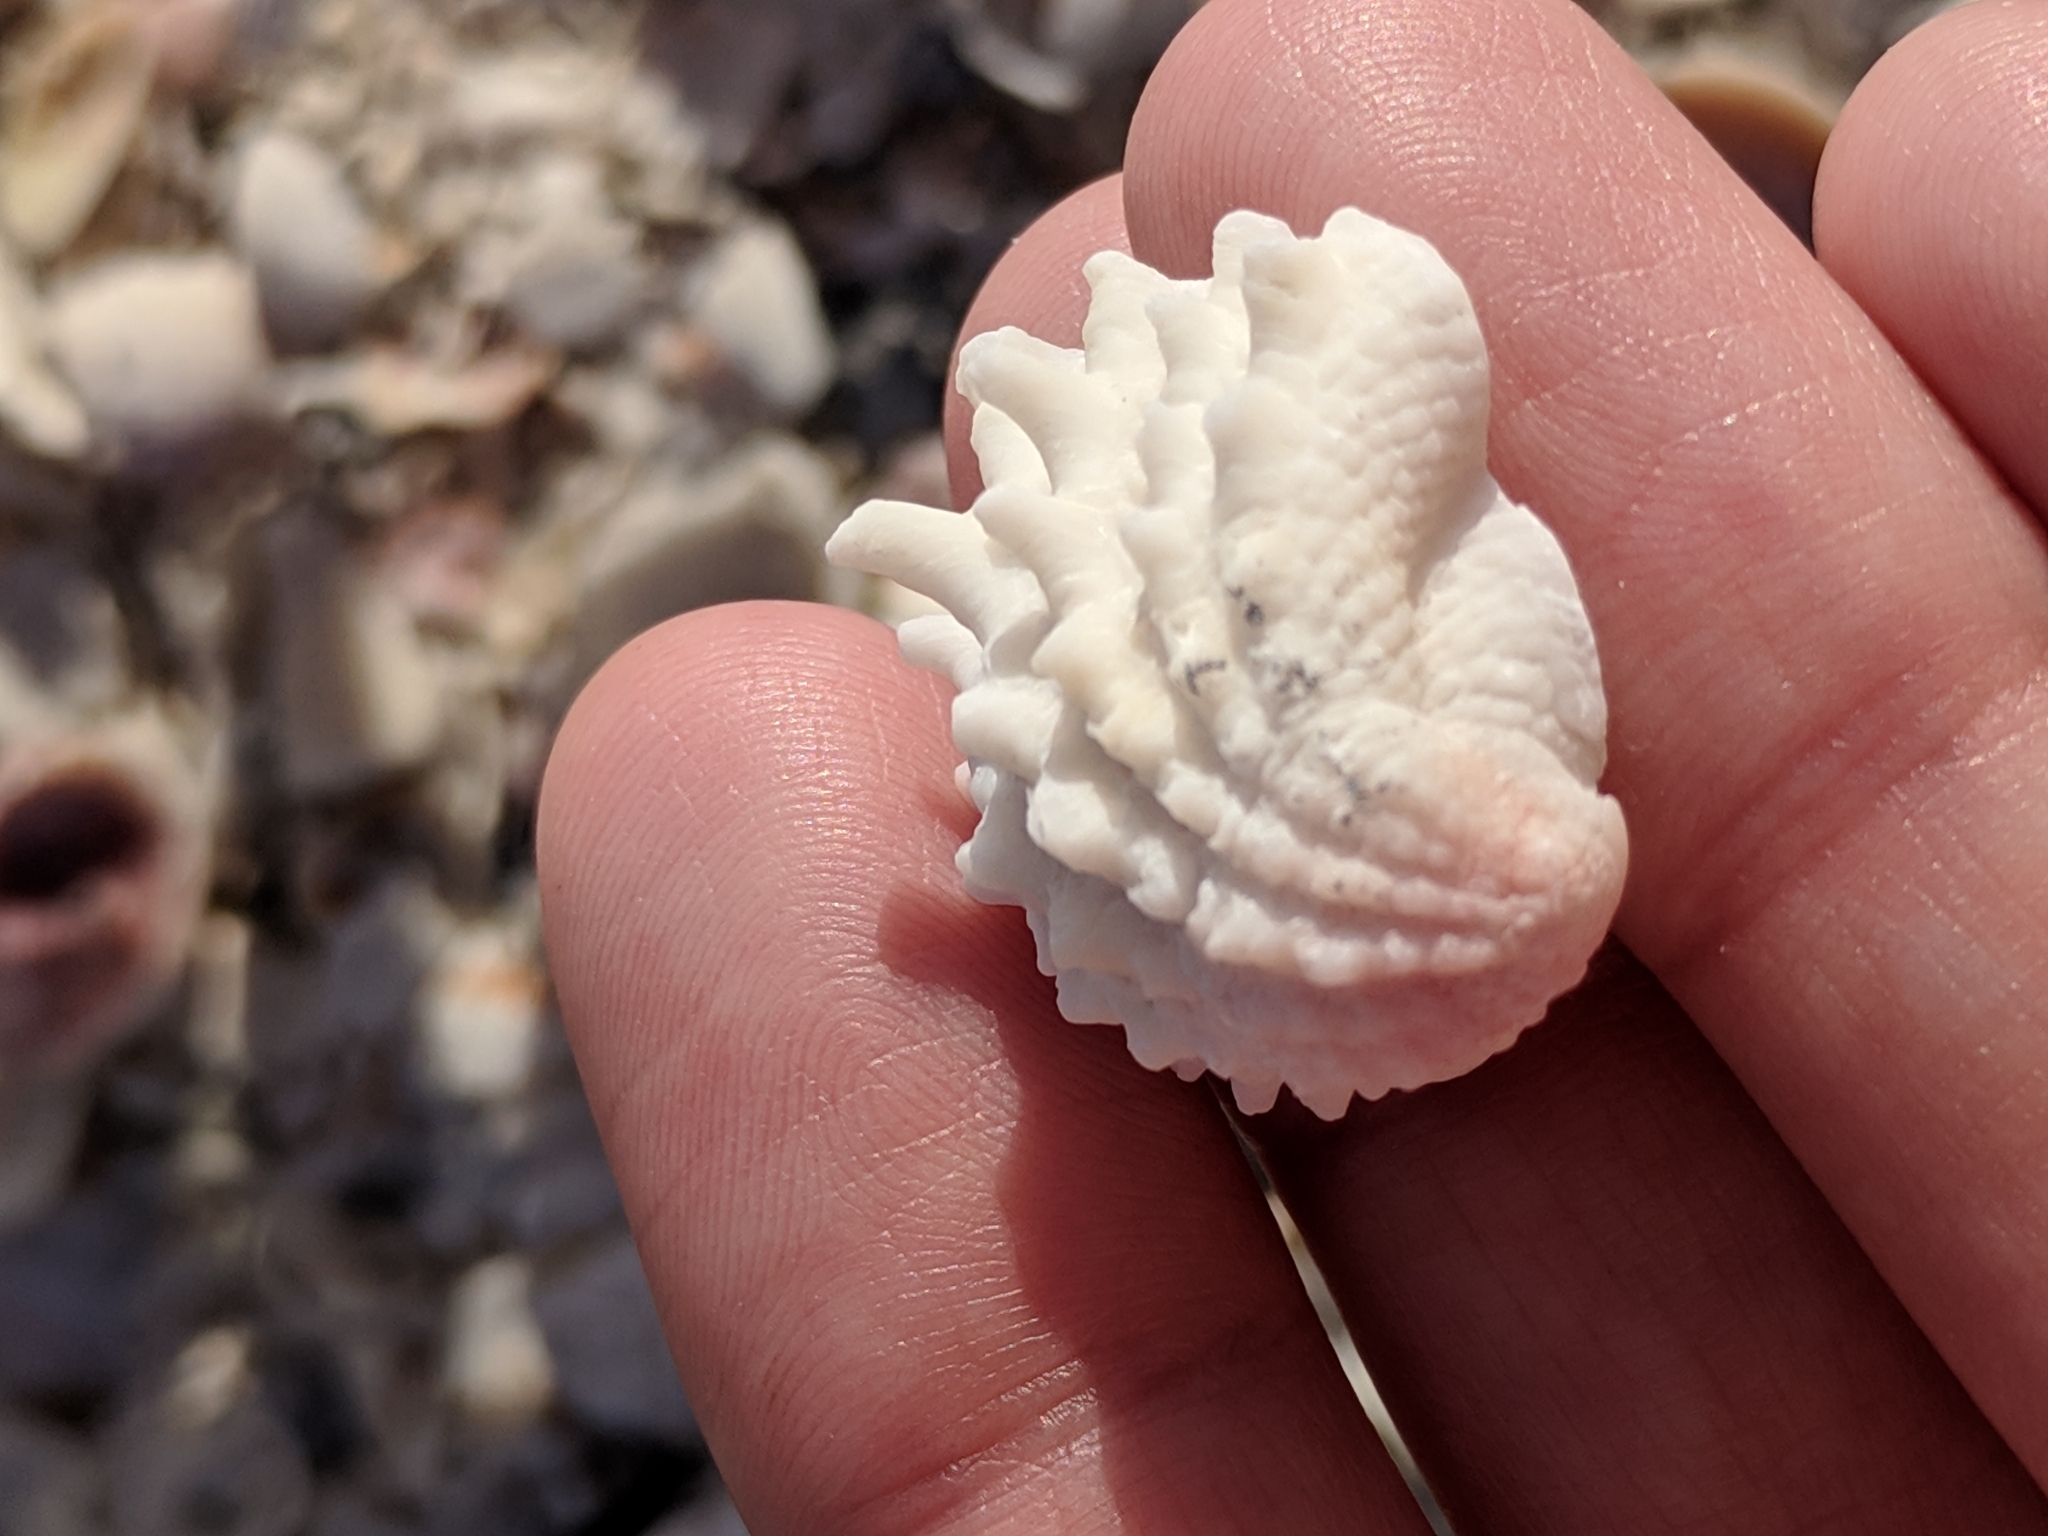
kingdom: Animalia
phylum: Mollusca
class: Bivalvia
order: Venerida
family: Chamidae
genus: Arcinella
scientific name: Arcinella cornuta
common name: Florida spiny jewel box
